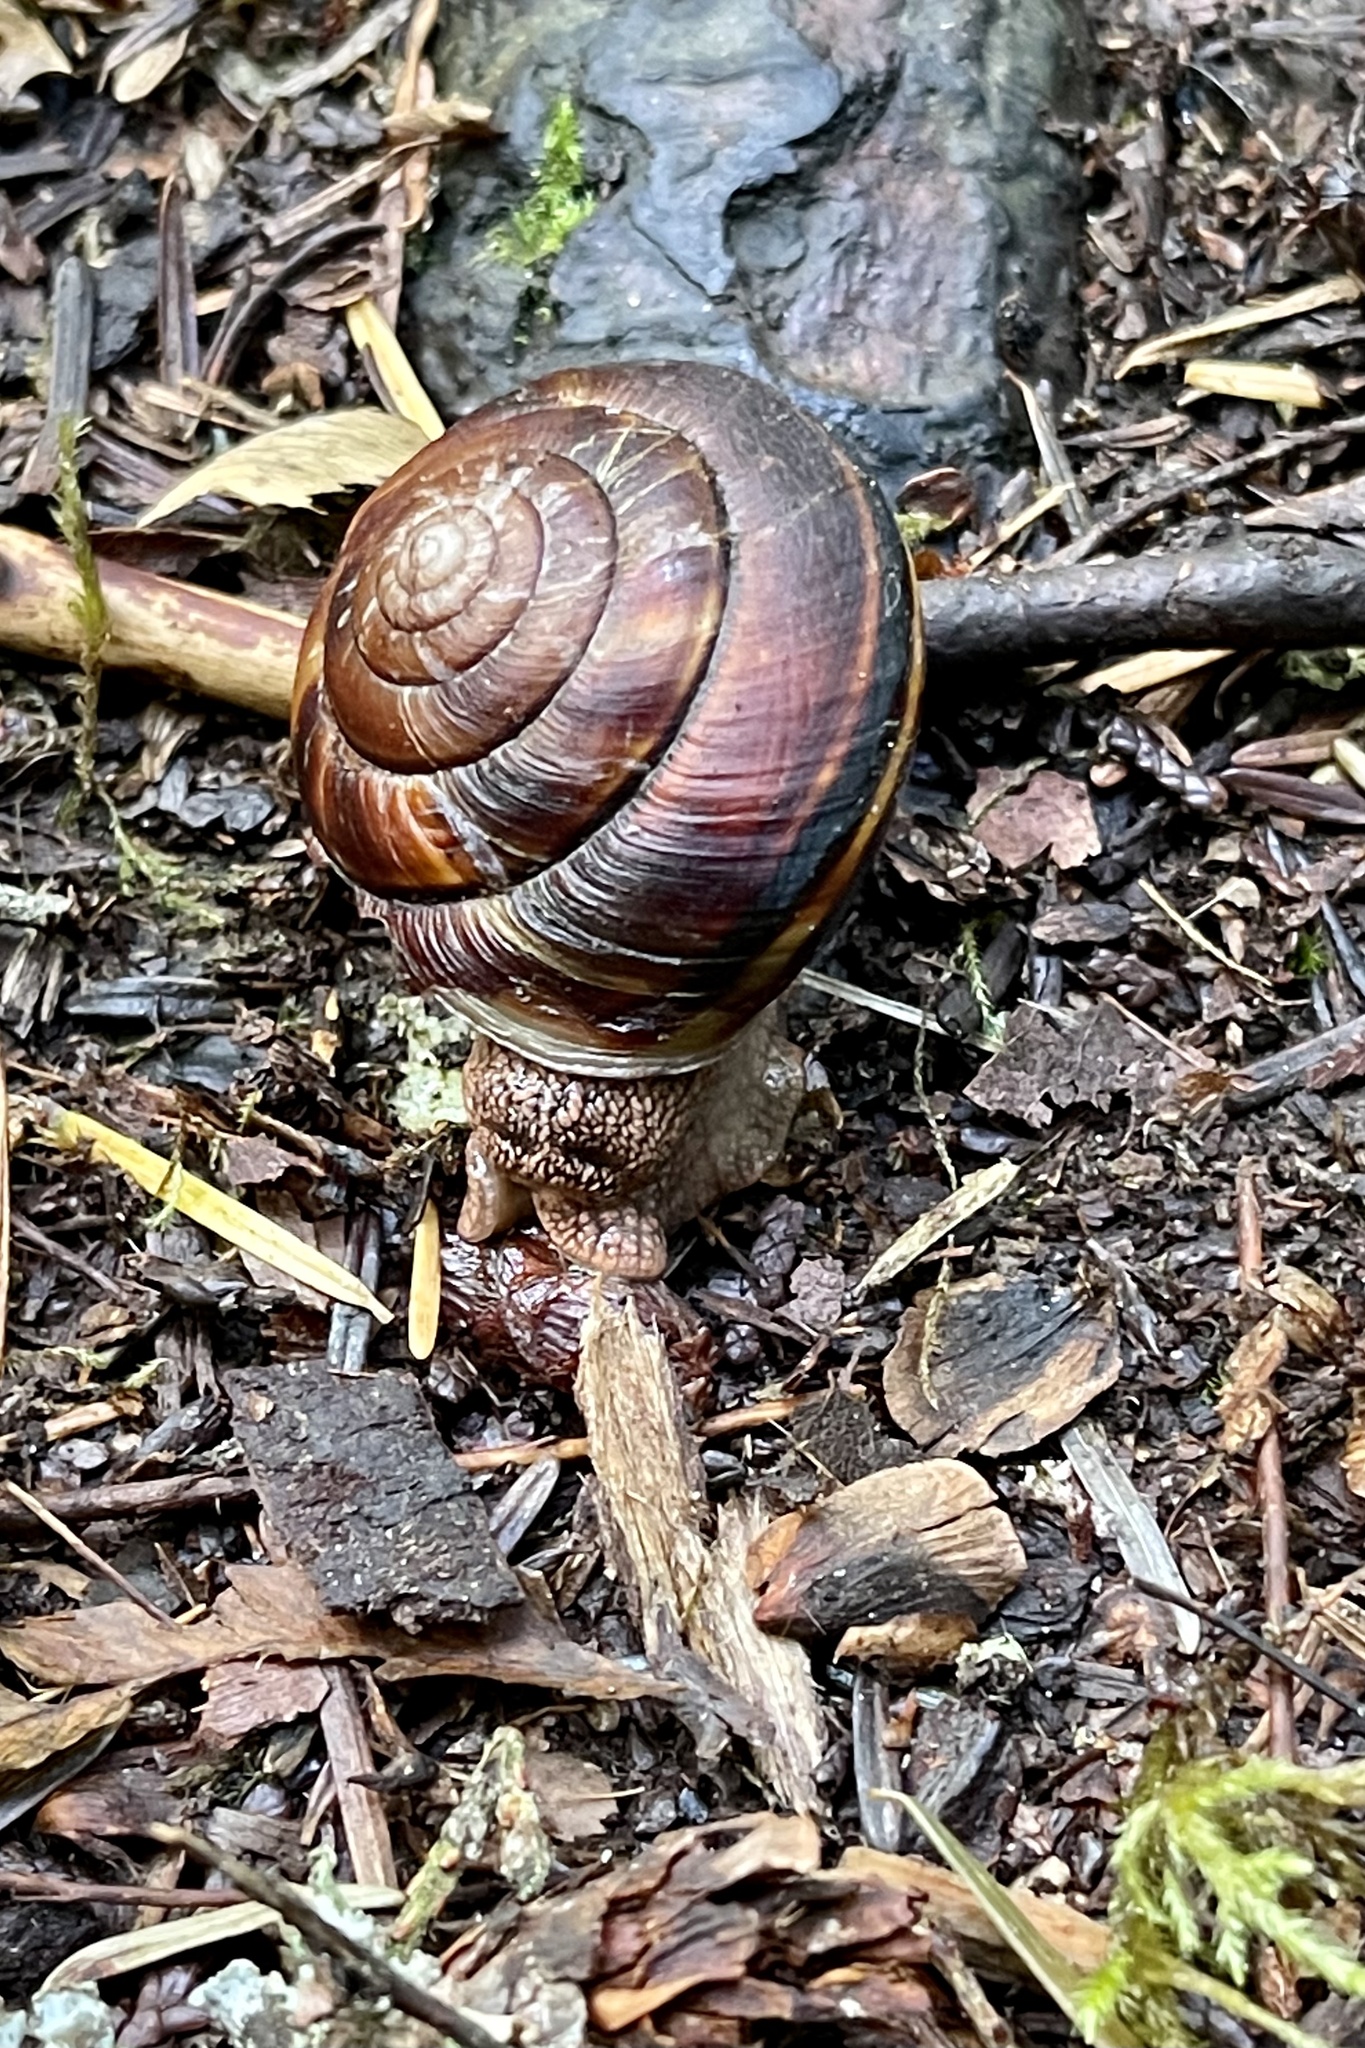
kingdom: Animalia
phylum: Mollusca
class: Gastropoda
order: Stylommatophora
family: Xanthonychidae
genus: Monadenia
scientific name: Monadenia fidelis
